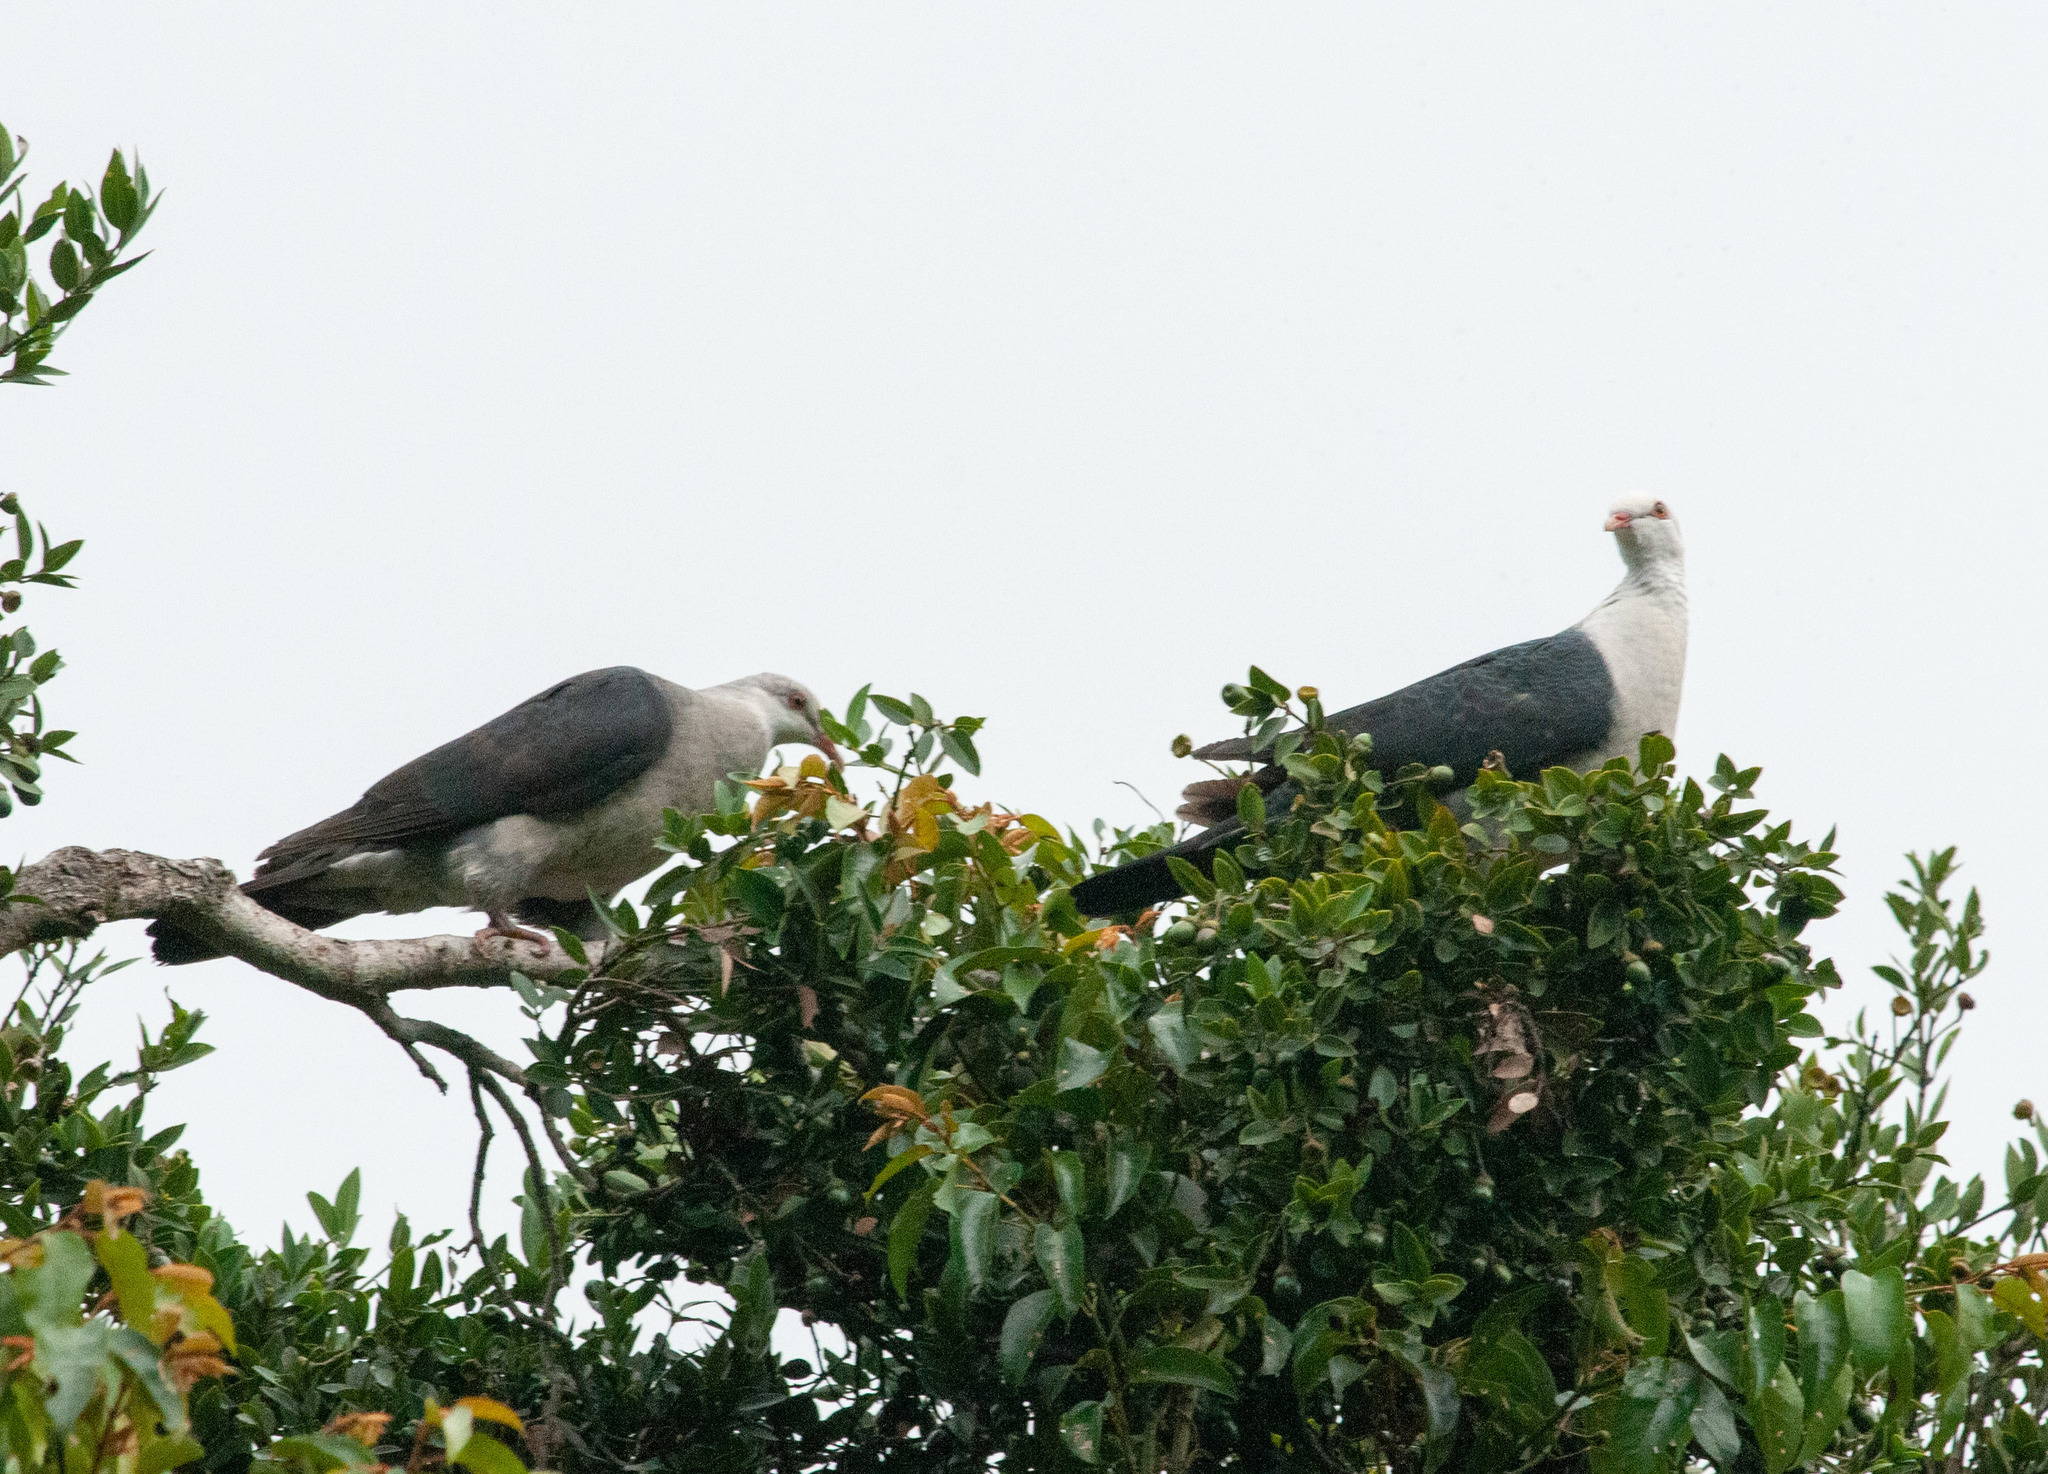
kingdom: Animalia
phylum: Chordata
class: Aves
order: Columbiformes
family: Columbidae
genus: Columba
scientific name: Columba leucomela
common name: White-headed pigeon
